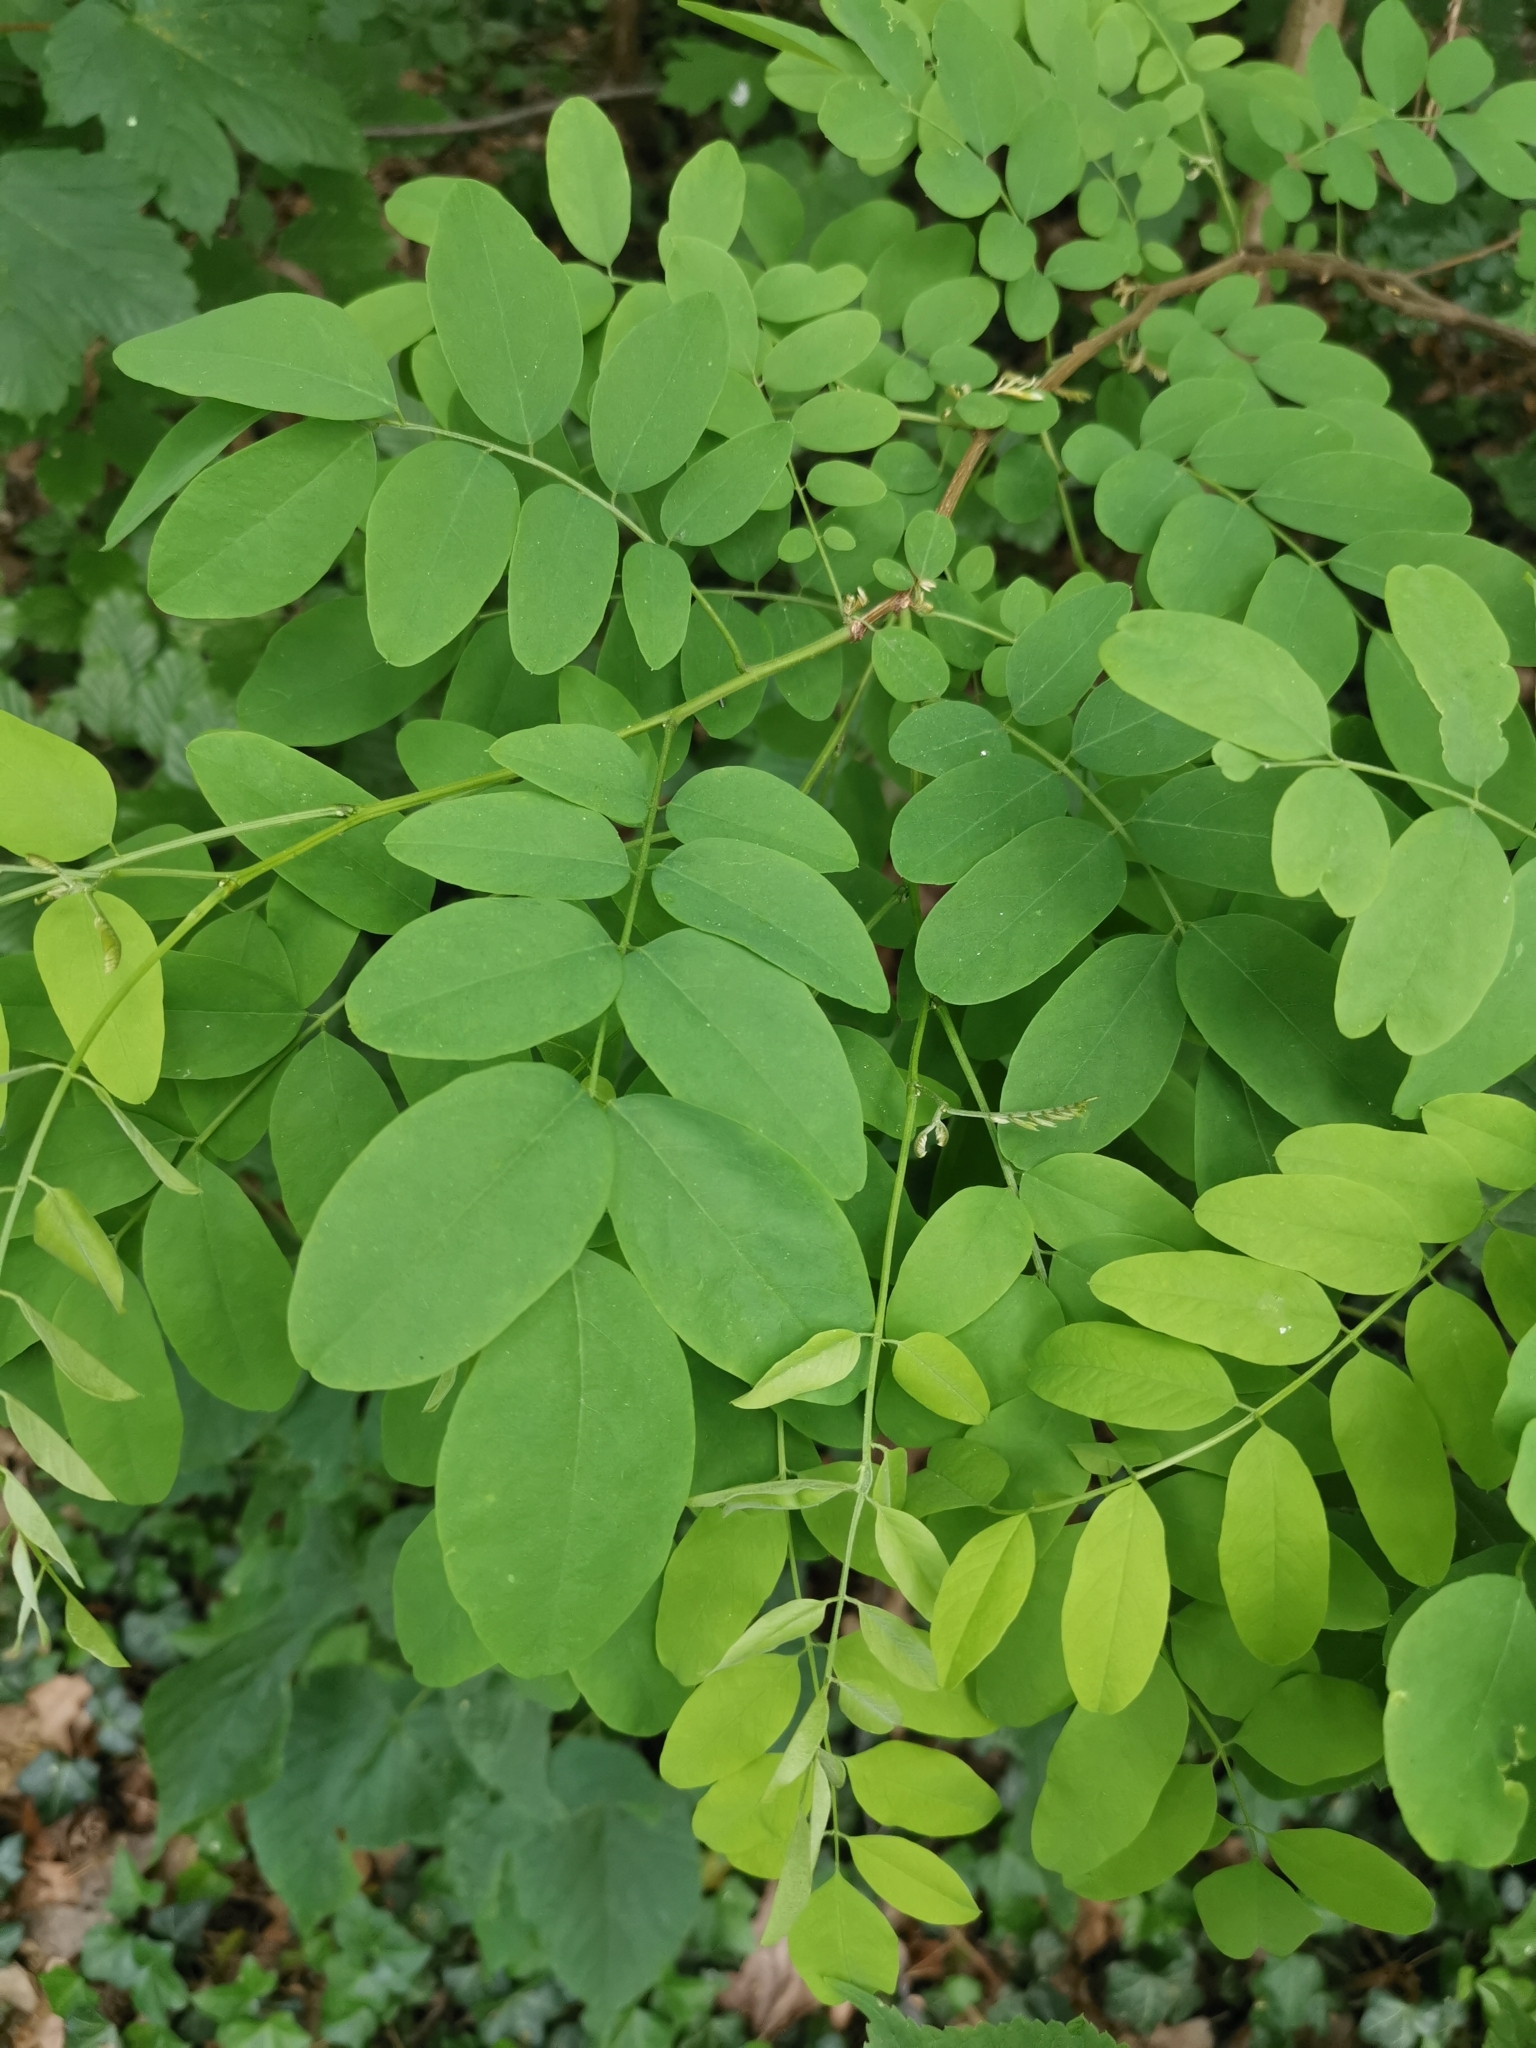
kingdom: Plantae
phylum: Tracheophyta
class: Magnoliopsida
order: Fabales
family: Fabaceae
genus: Robinia
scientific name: Robinia pseudoacacia
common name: Black locust
